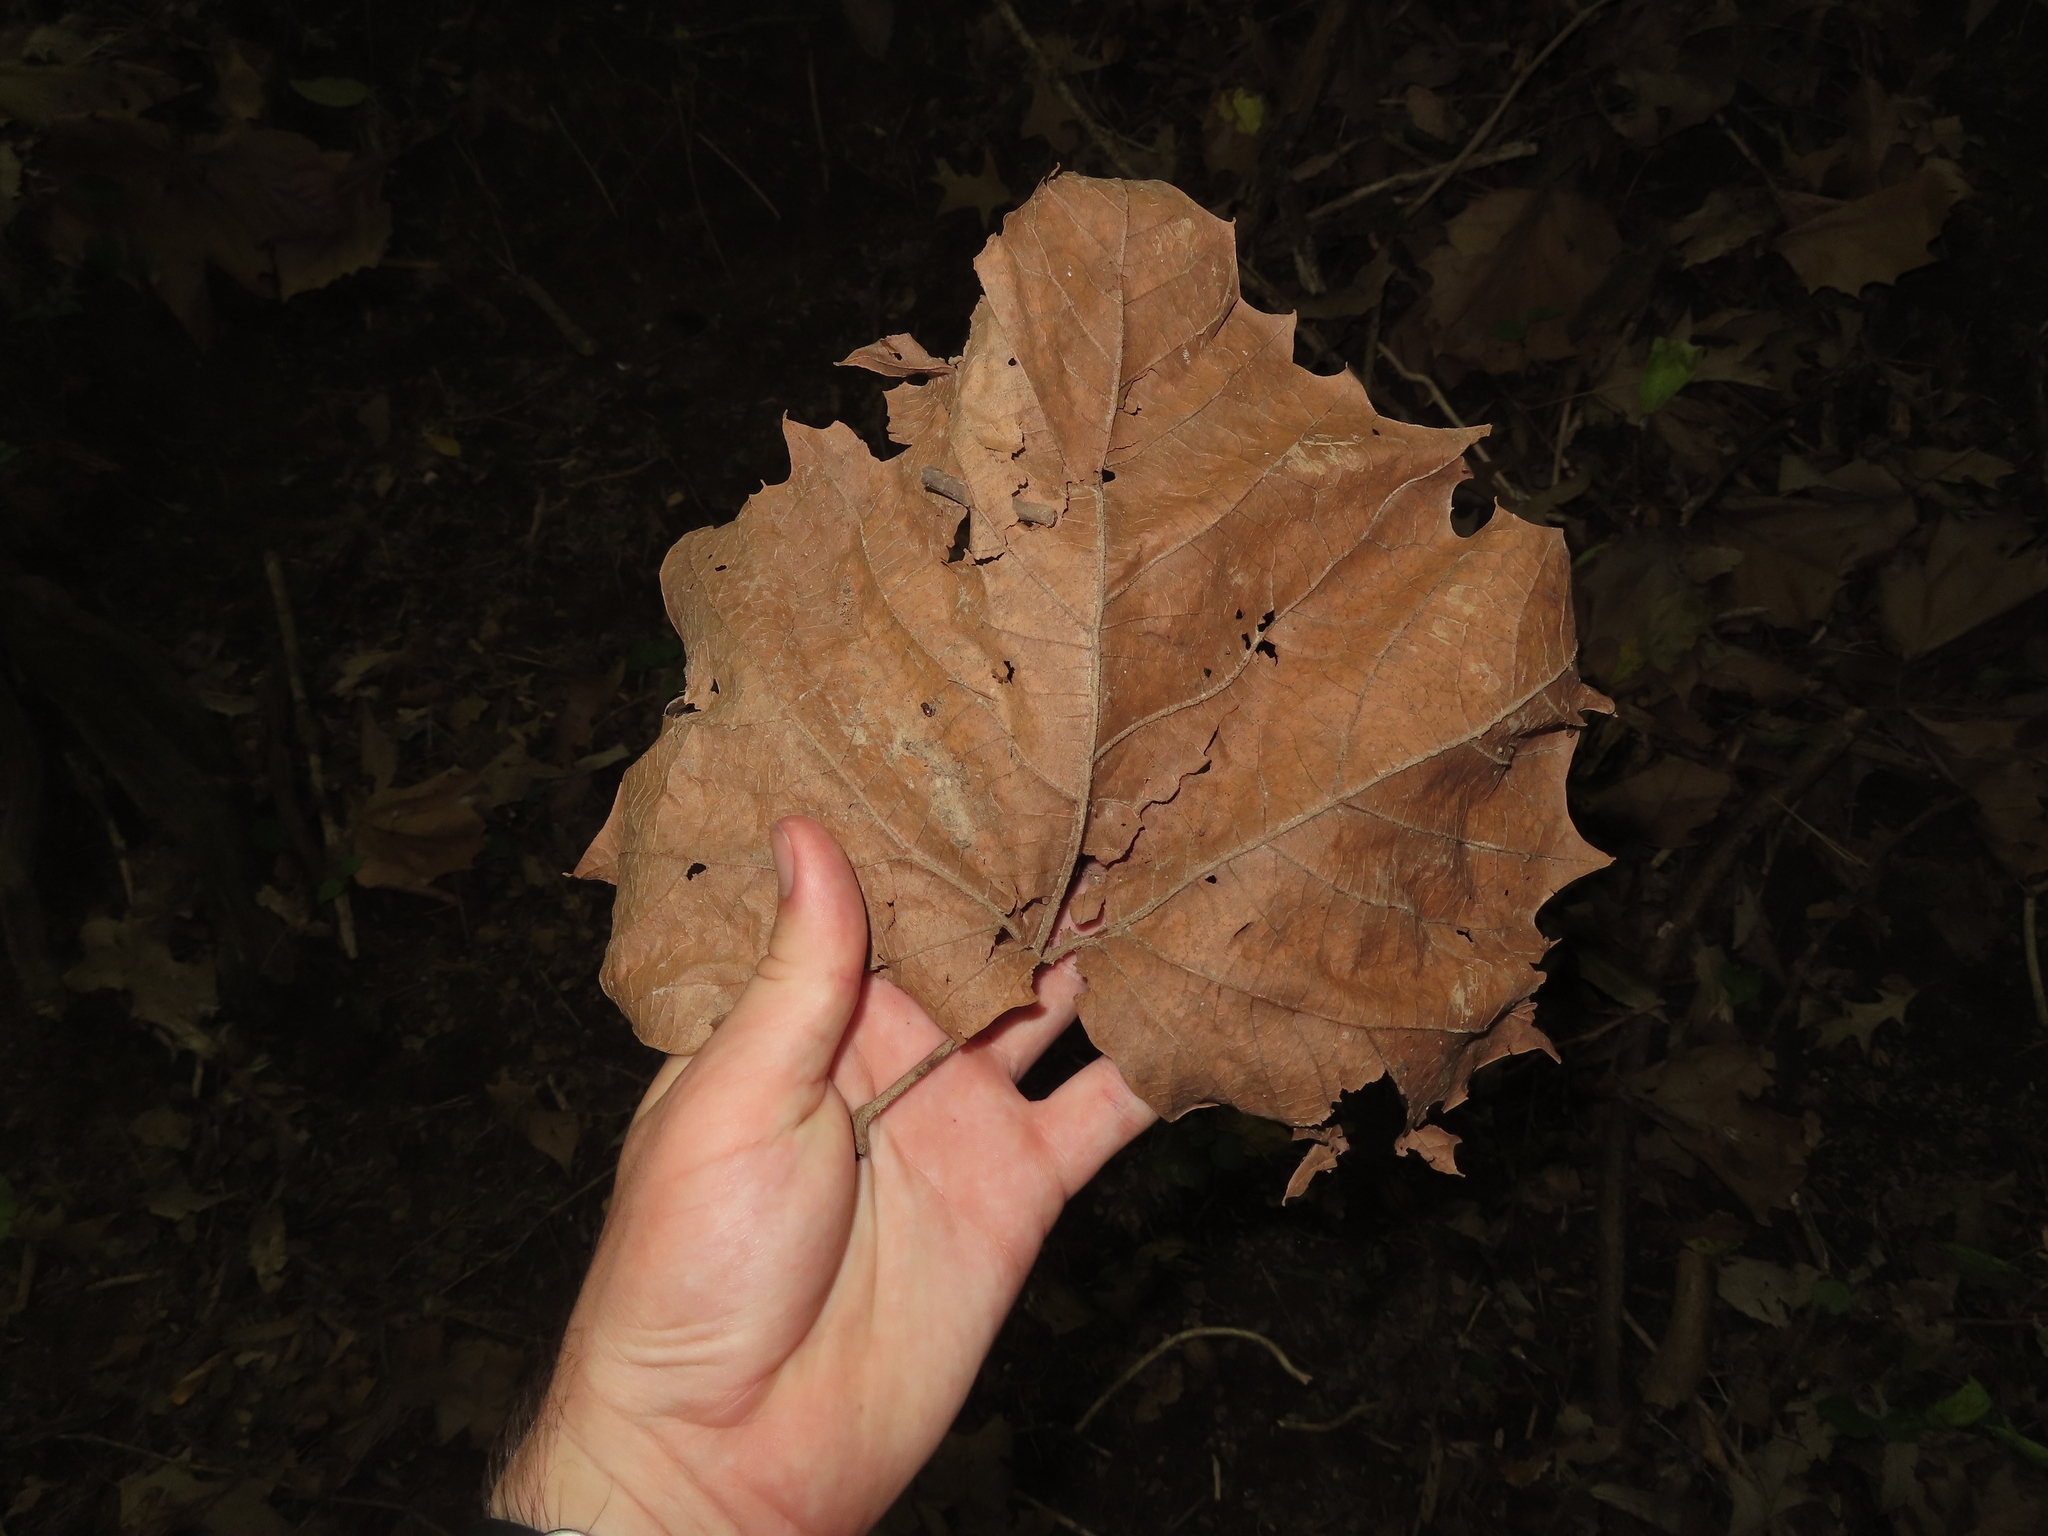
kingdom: Plantae
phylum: Tracheophyta
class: Magnoliopsida
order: Proteales
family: Platanaceae
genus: Platanus
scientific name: Platanus occidentalis
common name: American sycamore
